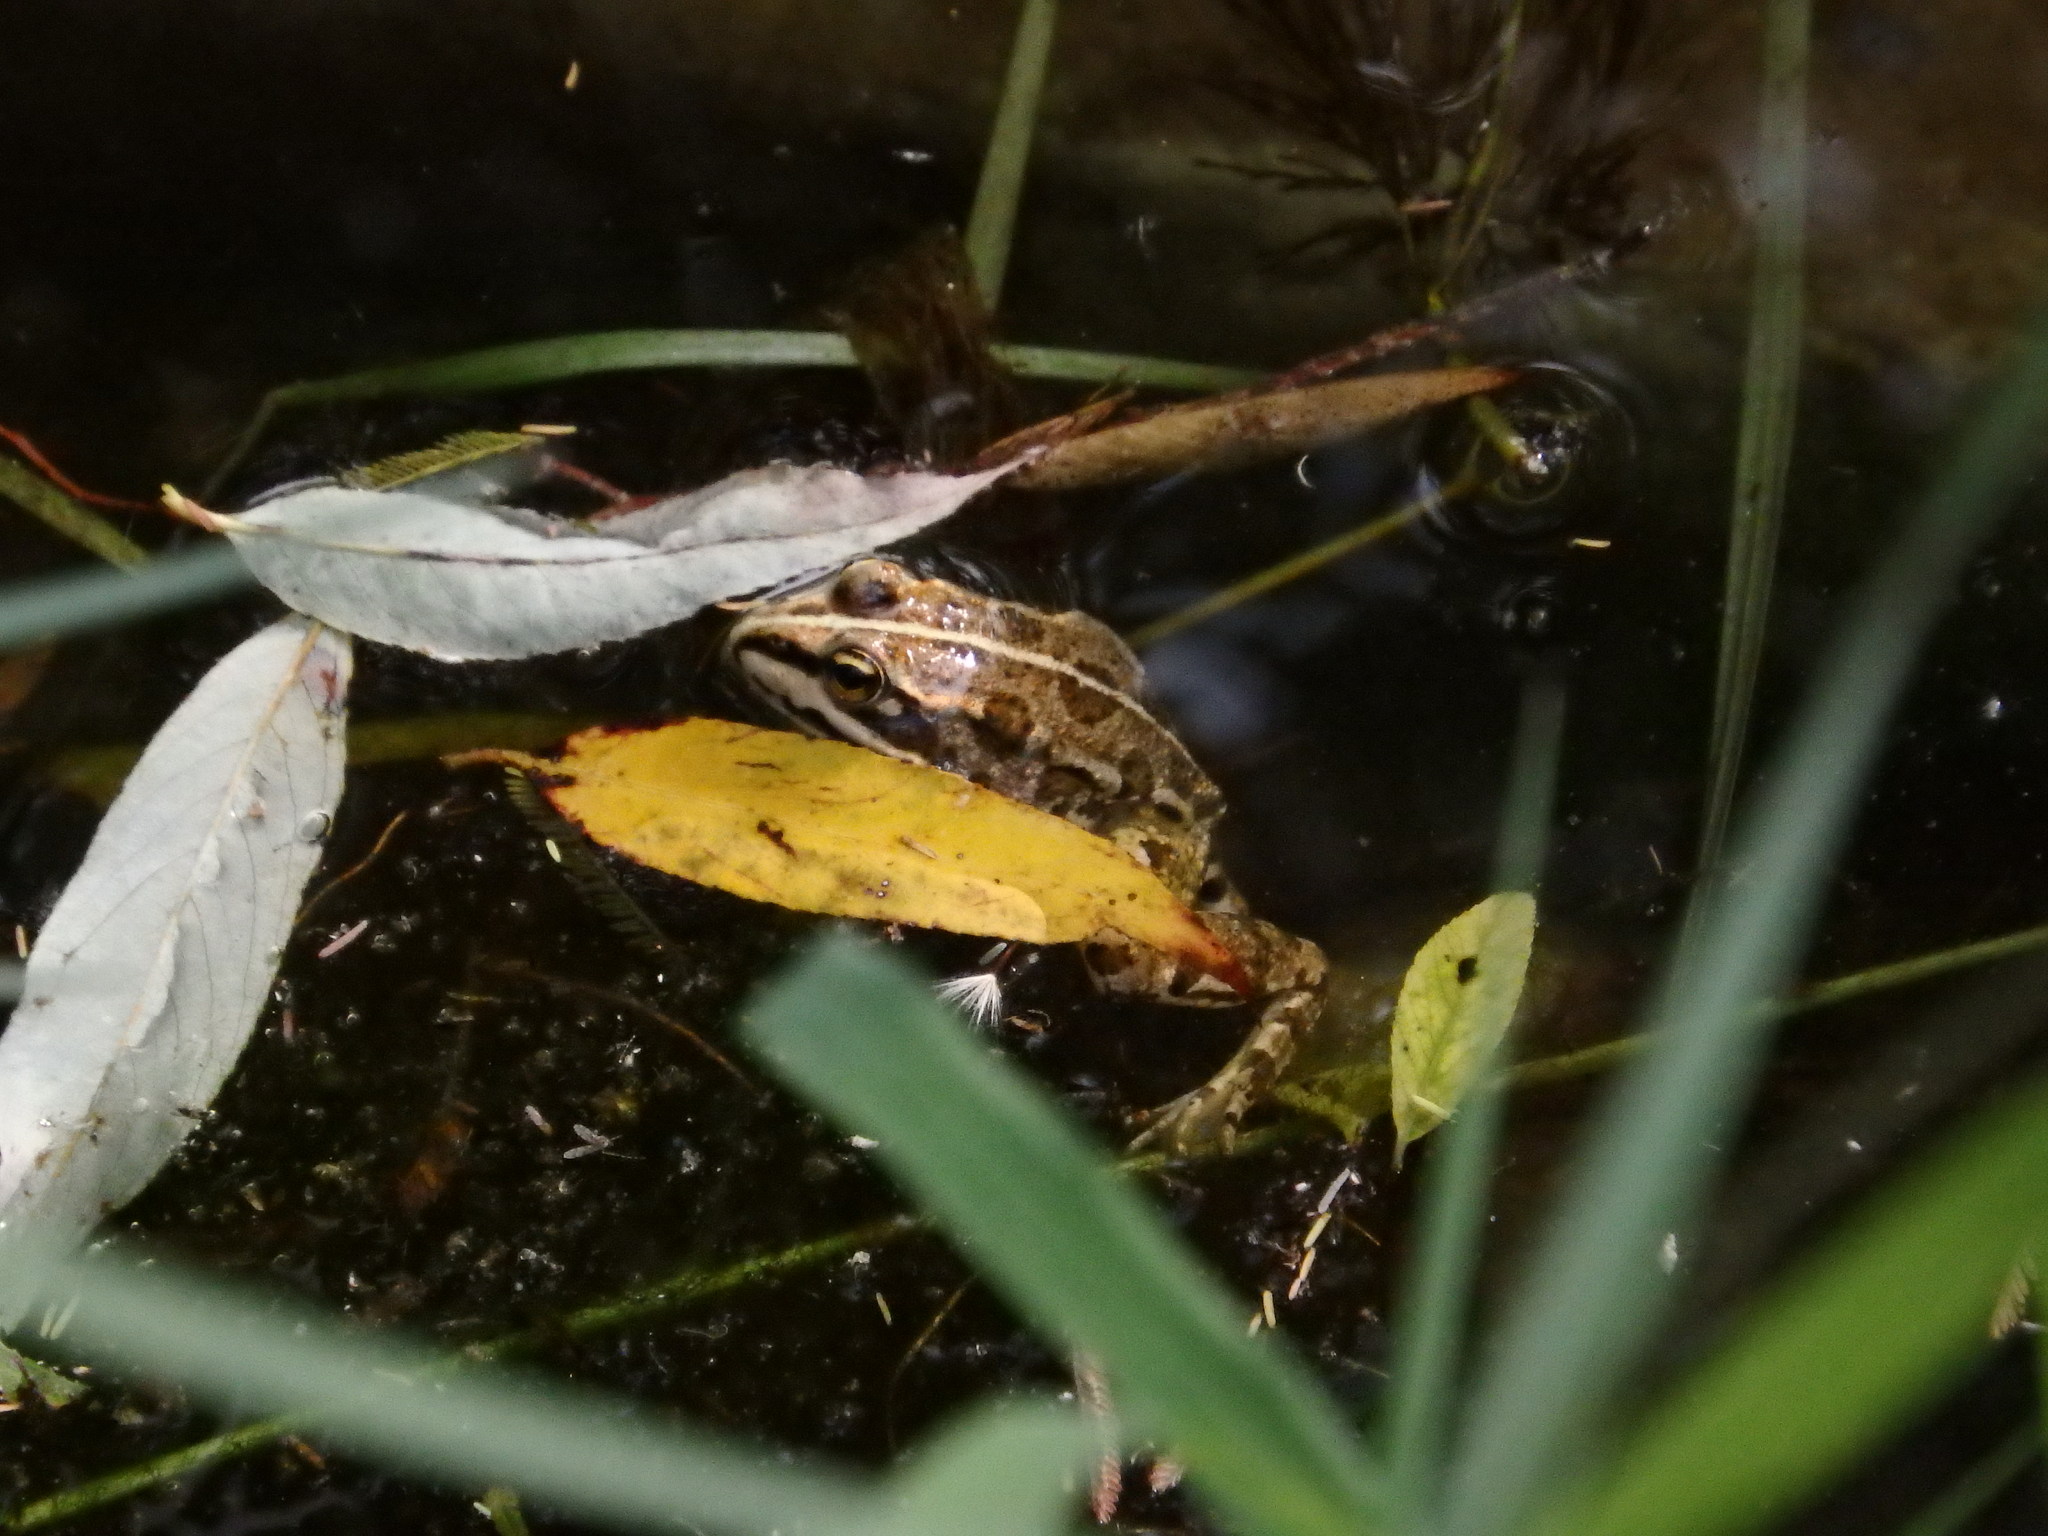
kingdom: Animalia
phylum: Chordata
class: Amphibia
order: Anura
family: Ranidae
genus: Pelophylax
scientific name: Pelophylax perezi
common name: Perez's frog
